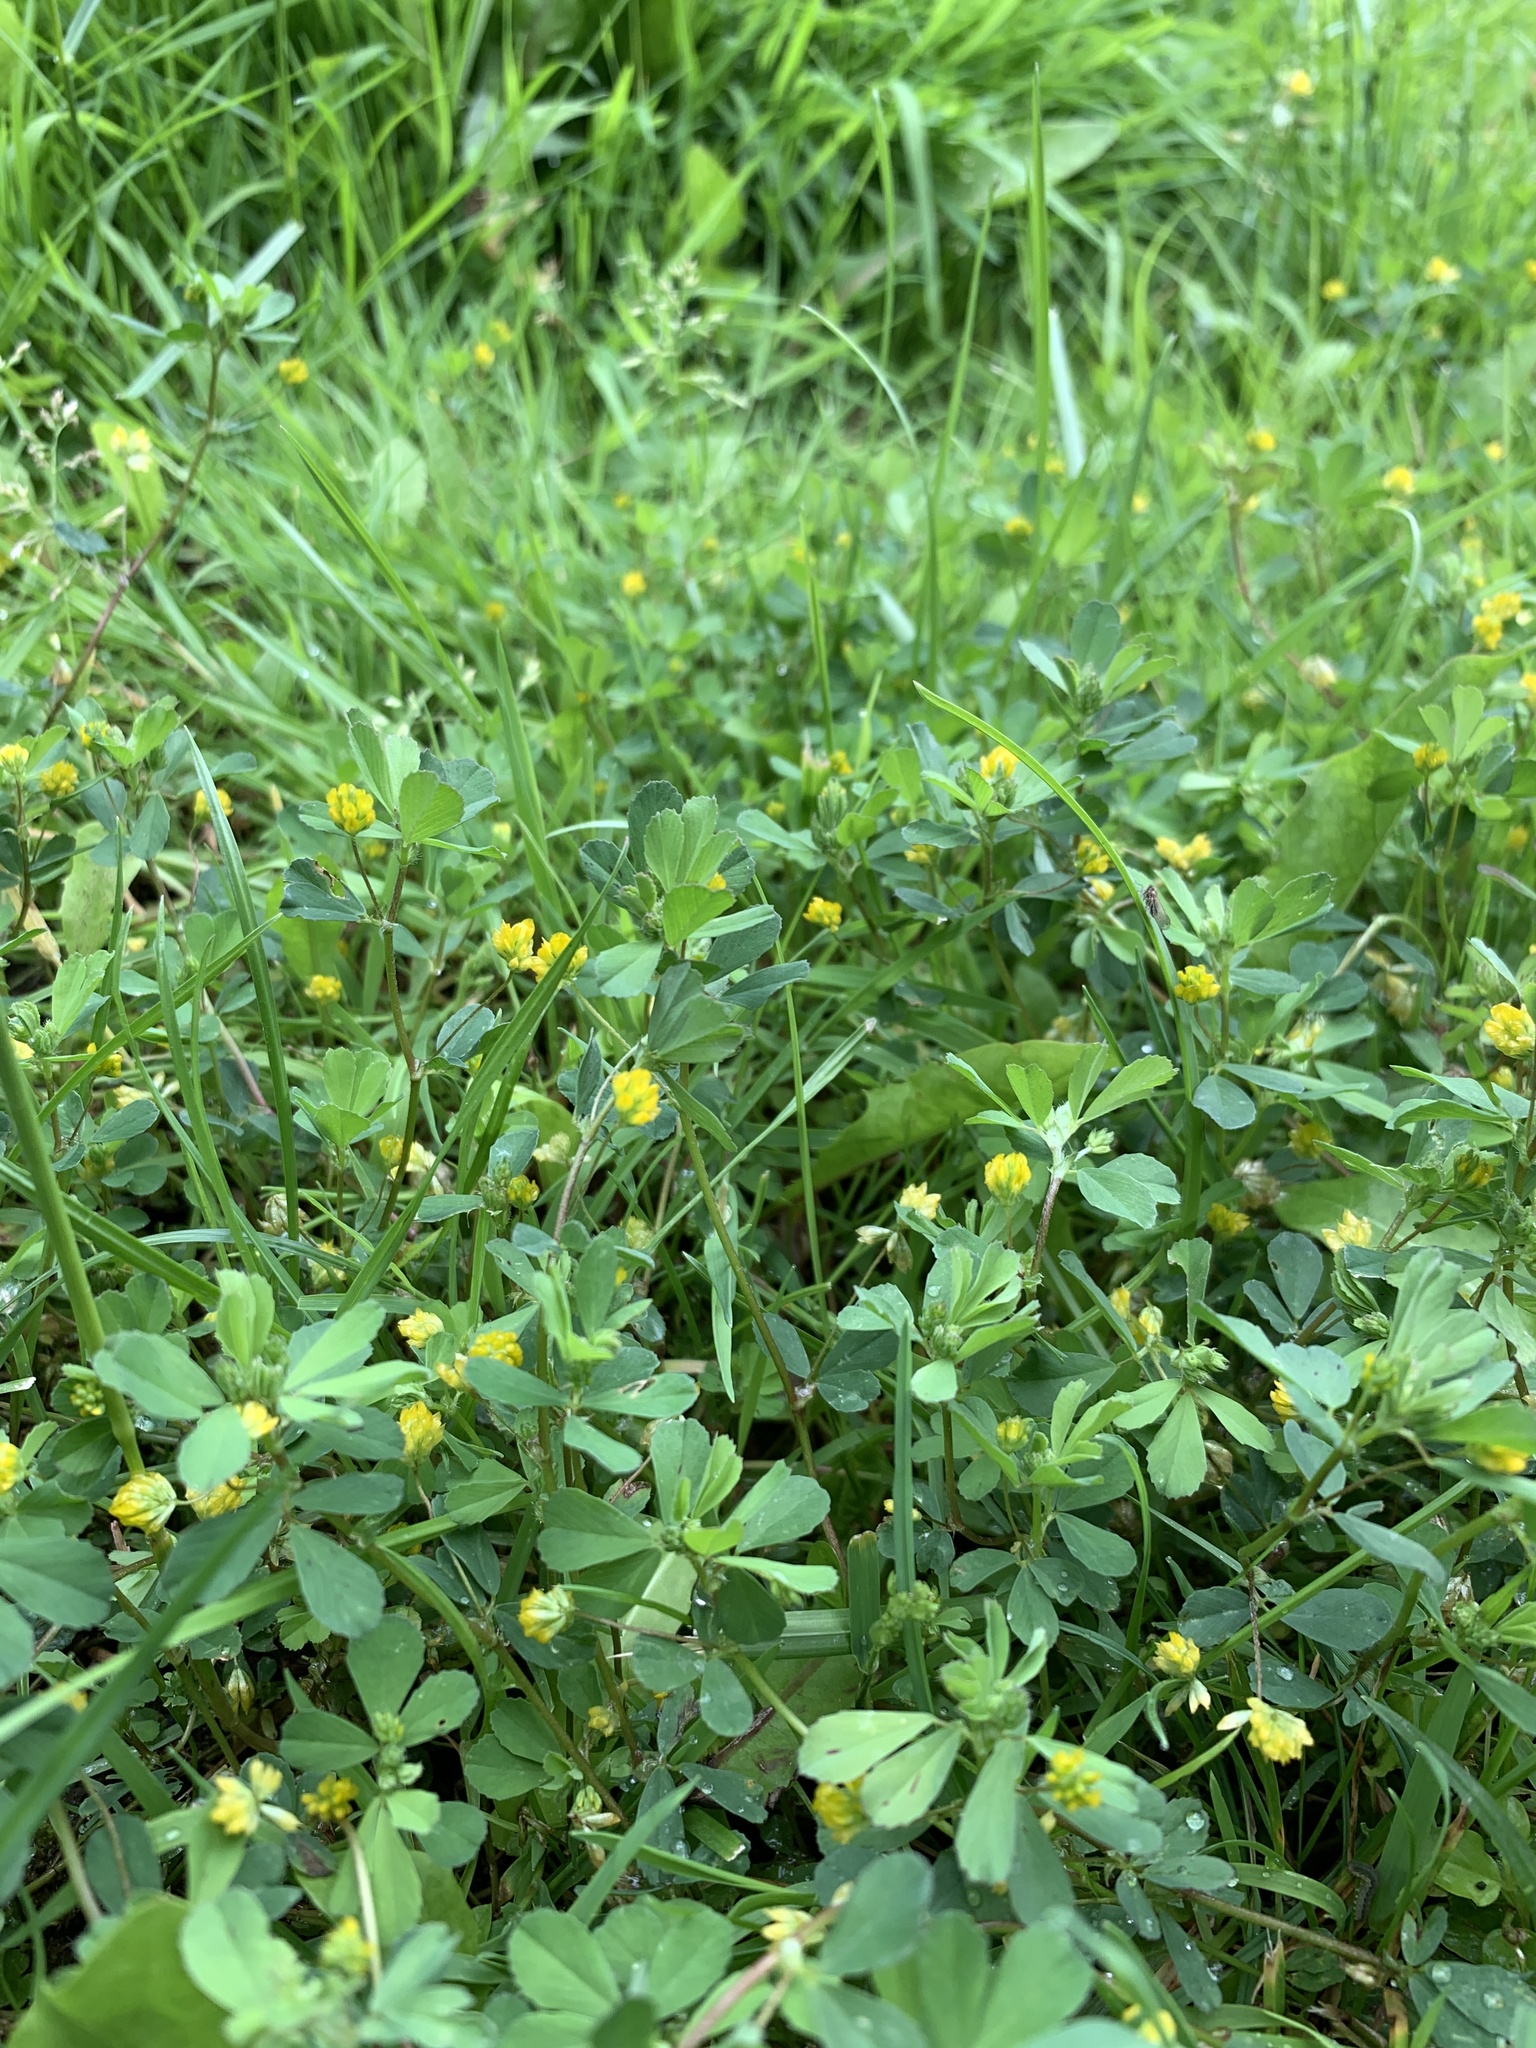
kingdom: Plantae
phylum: Tracheophyta
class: Magnoliopsida
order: Fabales
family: Fabaceae
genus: Trifolium
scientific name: Trifolium dubium
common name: Suckling clover
